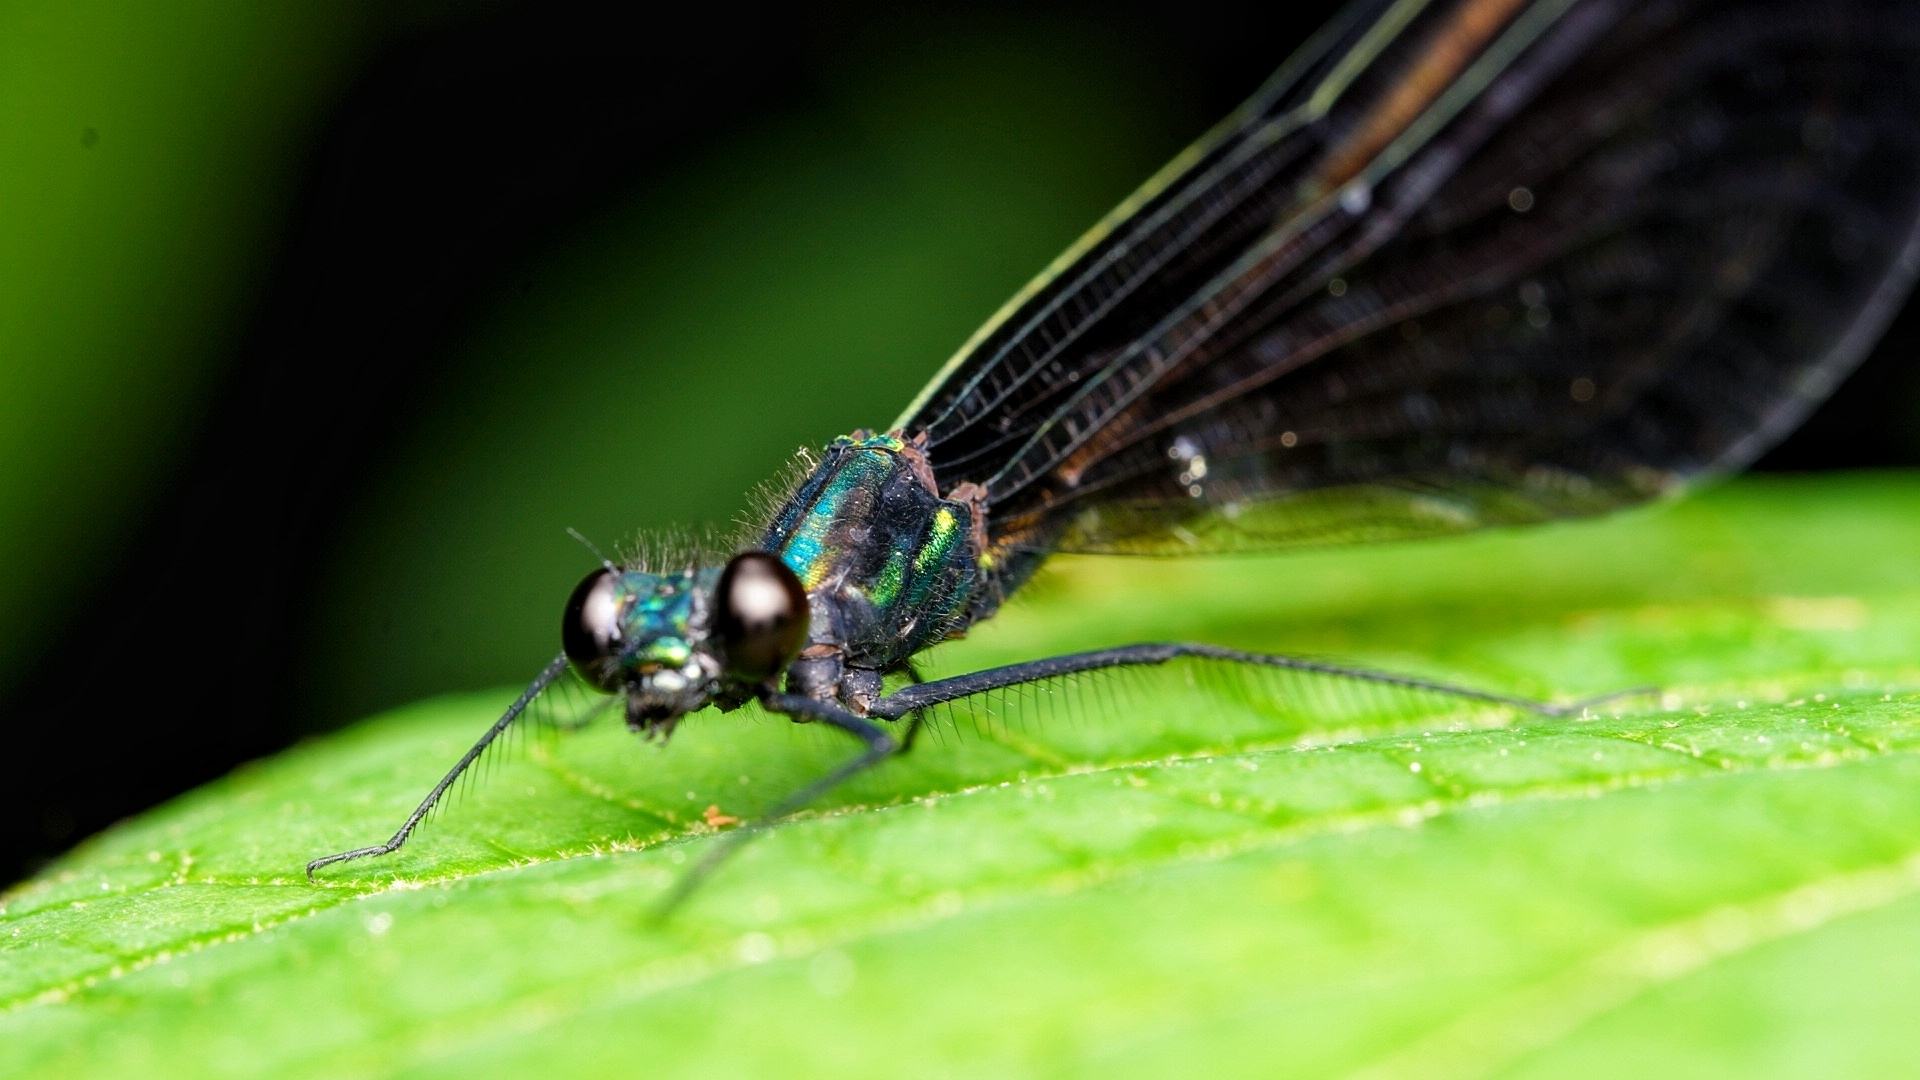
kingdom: Animalia
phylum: Arthropoda
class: Insecta
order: Odonata
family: Calopterygidae
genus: Calopteryx
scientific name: Calopteryx maculata
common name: Ebony jewelwing
